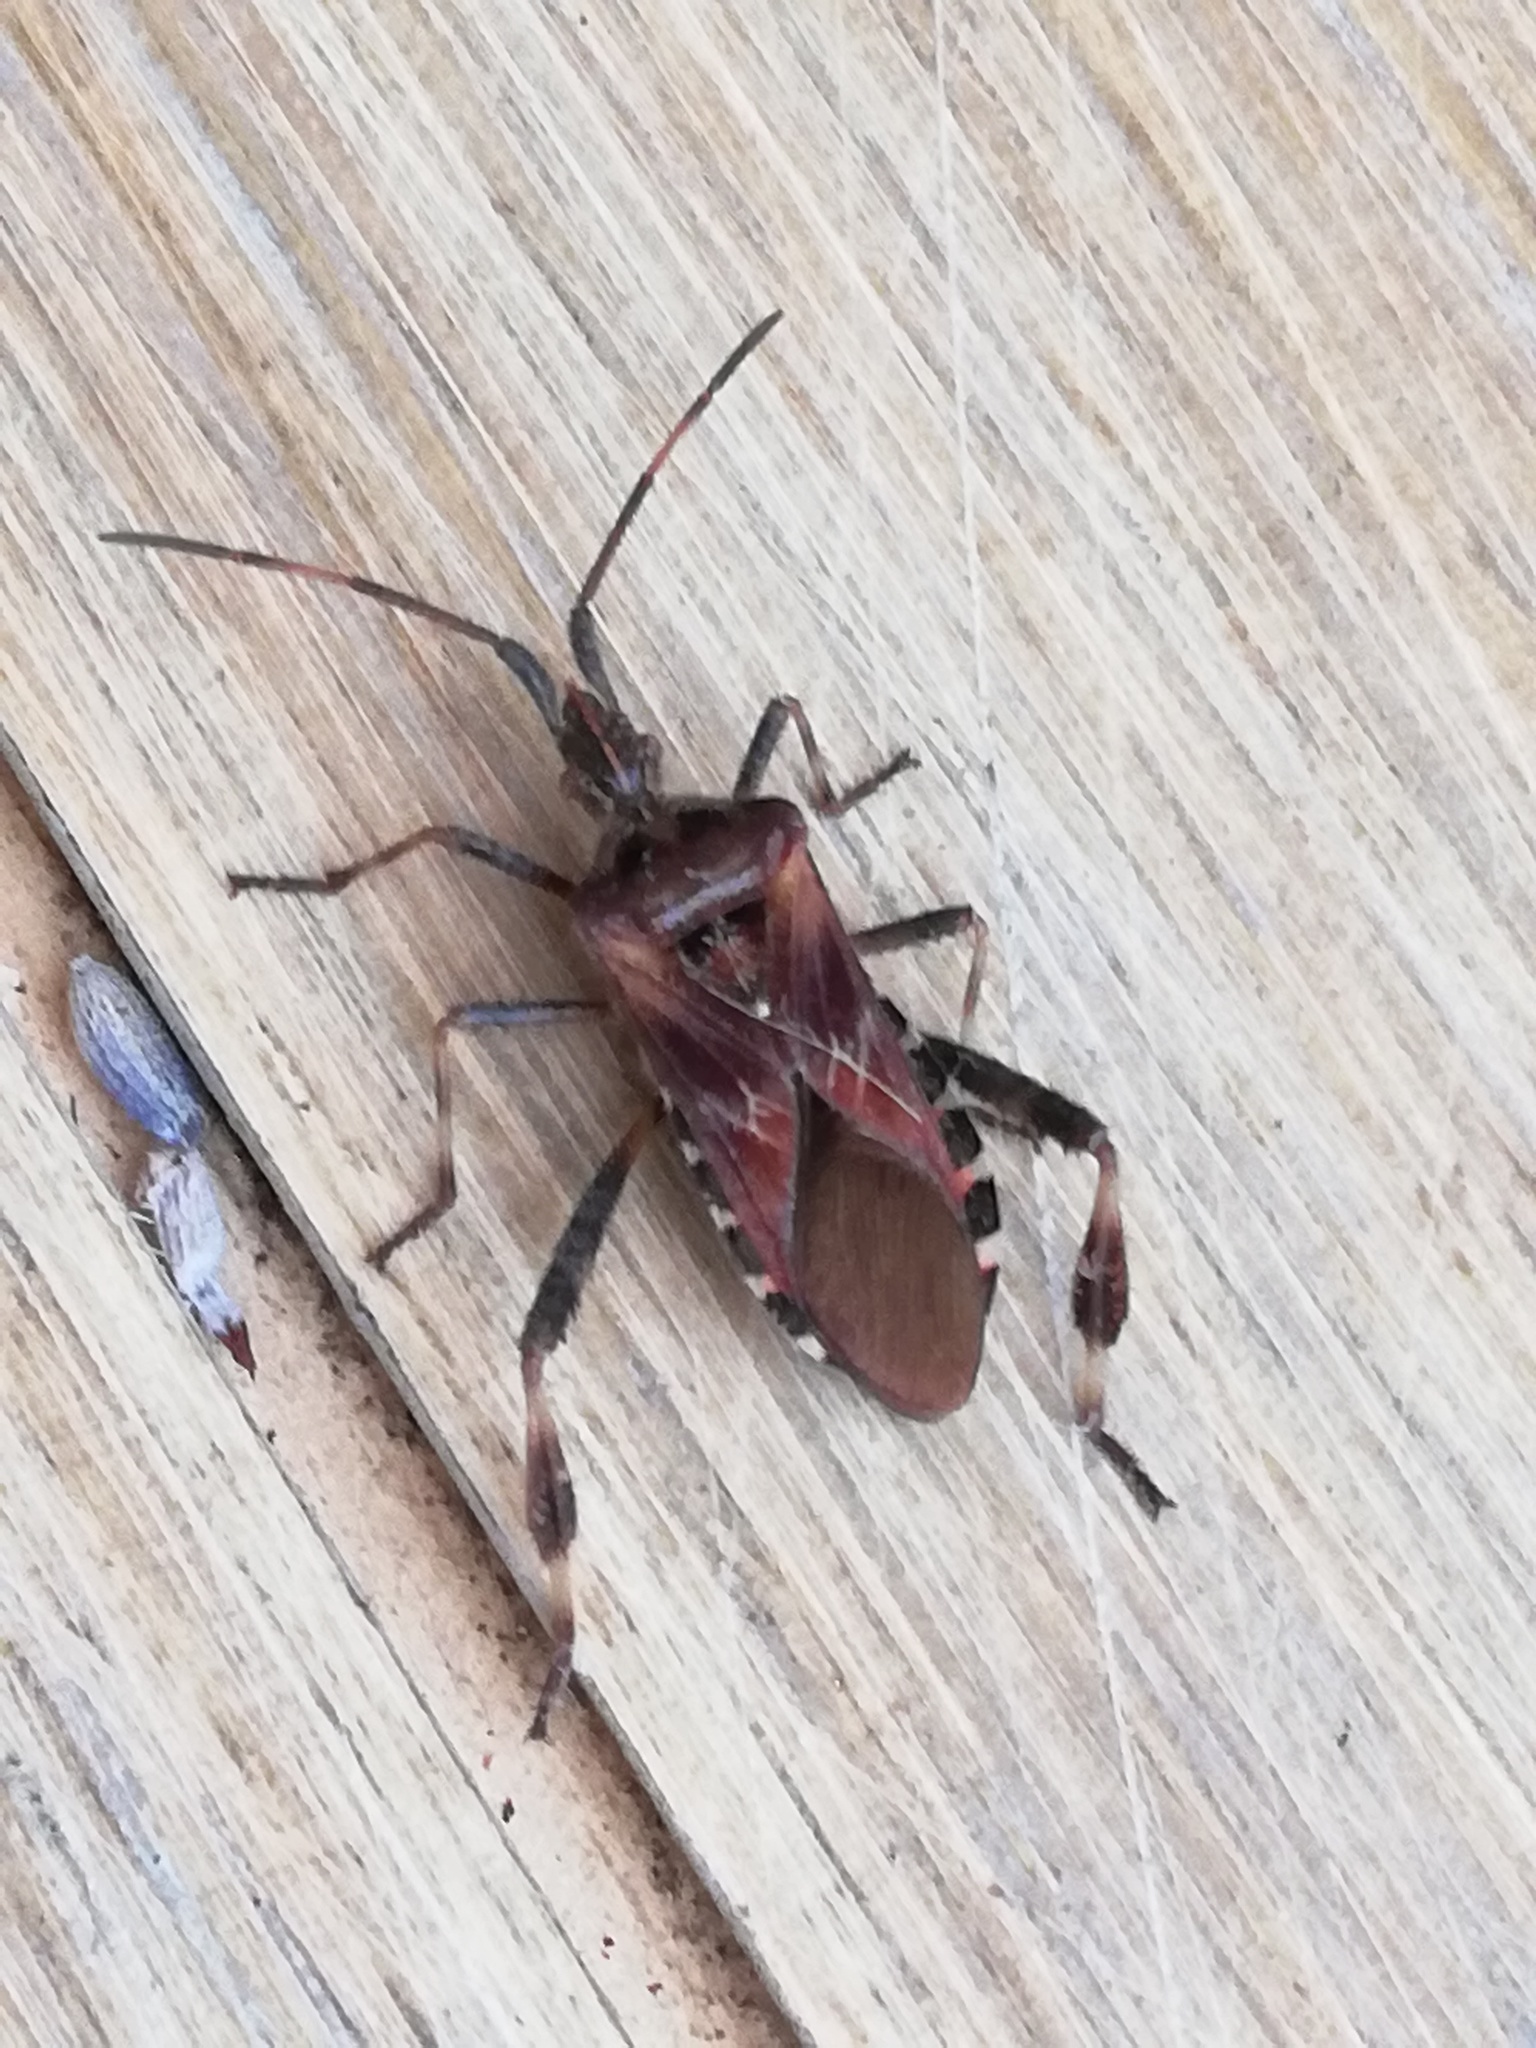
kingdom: Animalia
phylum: Arthropoda
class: Insecta
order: Hemiptera
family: Coreidae
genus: Leptoglossus
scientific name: Leptoglossus occidentalis
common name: Western conifer-seed bug
